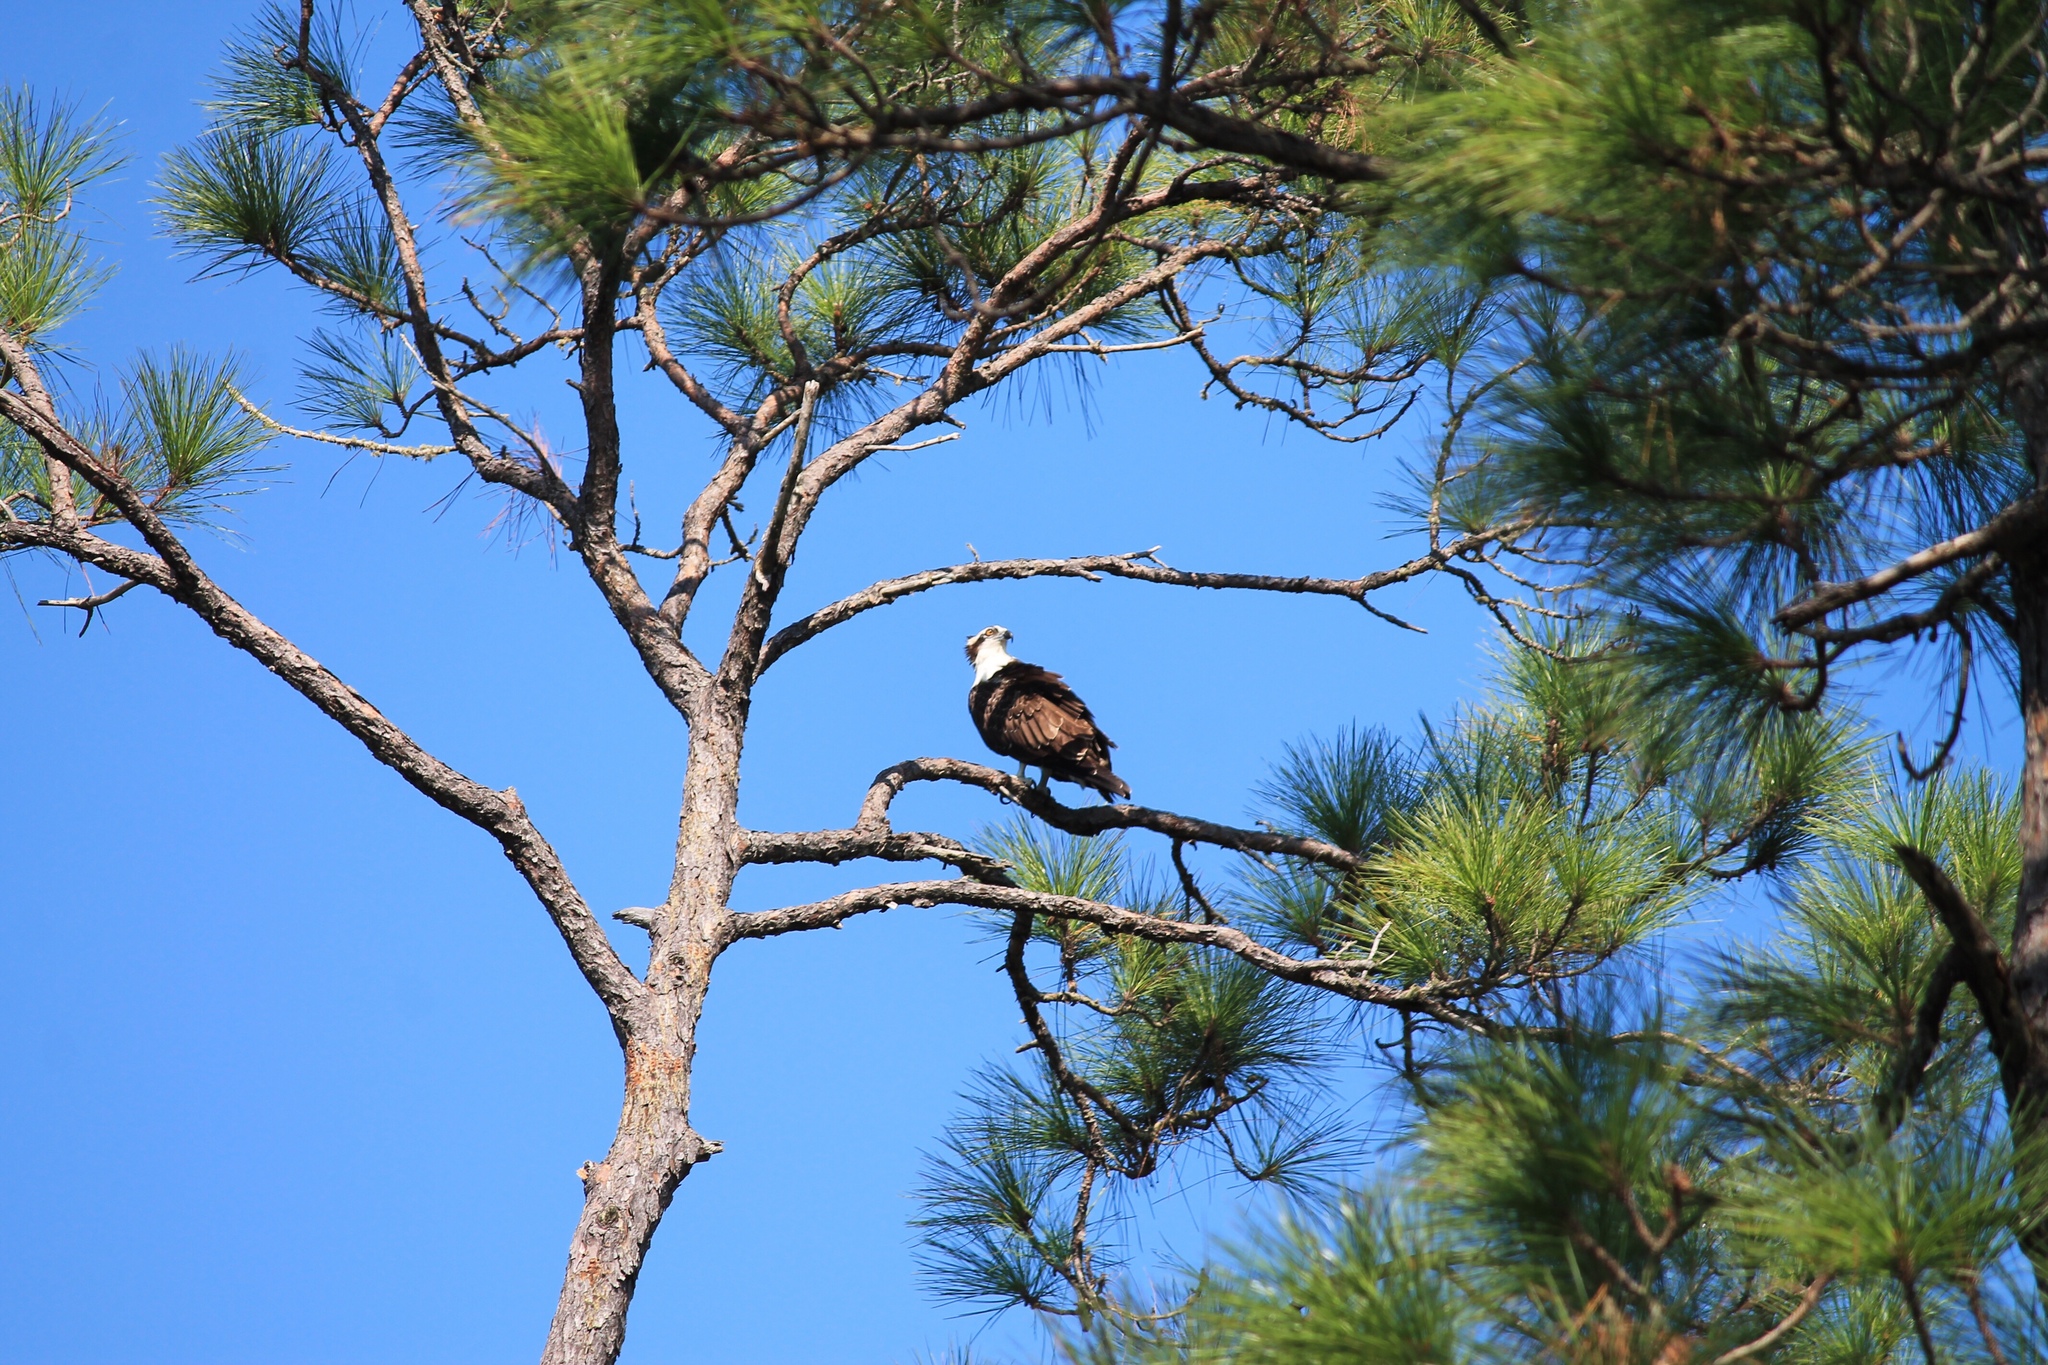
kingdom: Animalia
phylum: Chordata
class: Aves
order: Accipitriformes
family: Pandionidae
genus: Pandion
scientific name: Pandion haliaetus
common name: Osprey
